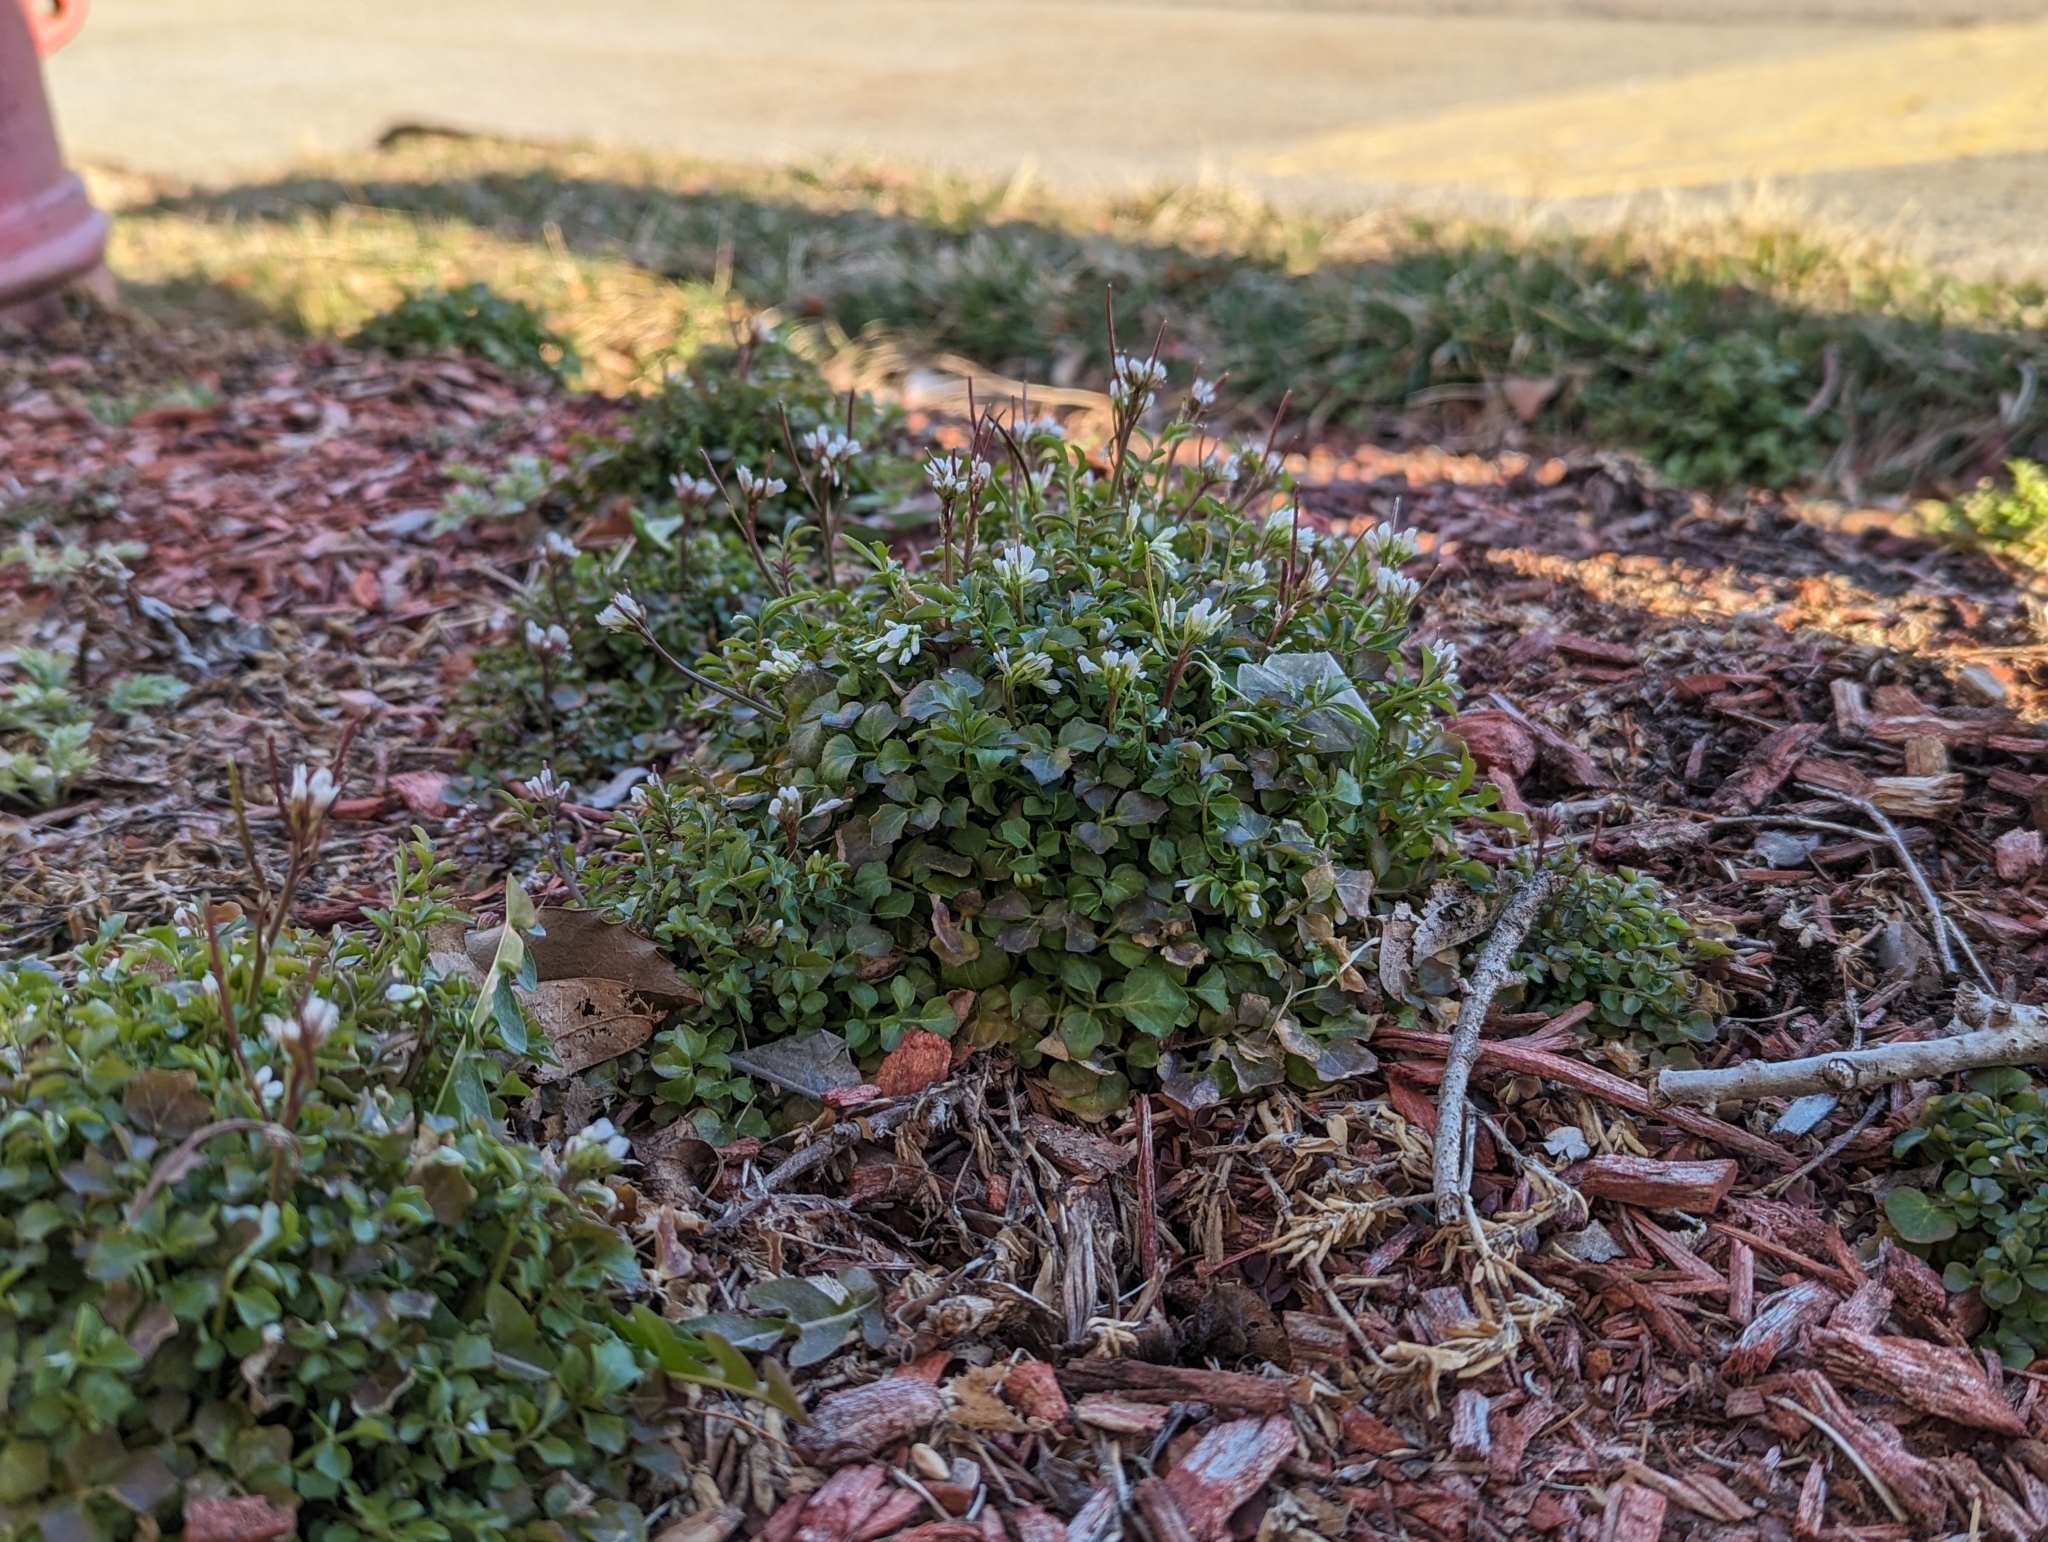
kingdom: Plantae
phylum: Tracheophyta
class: Magnoliopsida
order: Brassicales
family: Brassicaceae
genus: Cardamine
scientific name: Cardamine hirsuta
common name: Hairy bittercress
